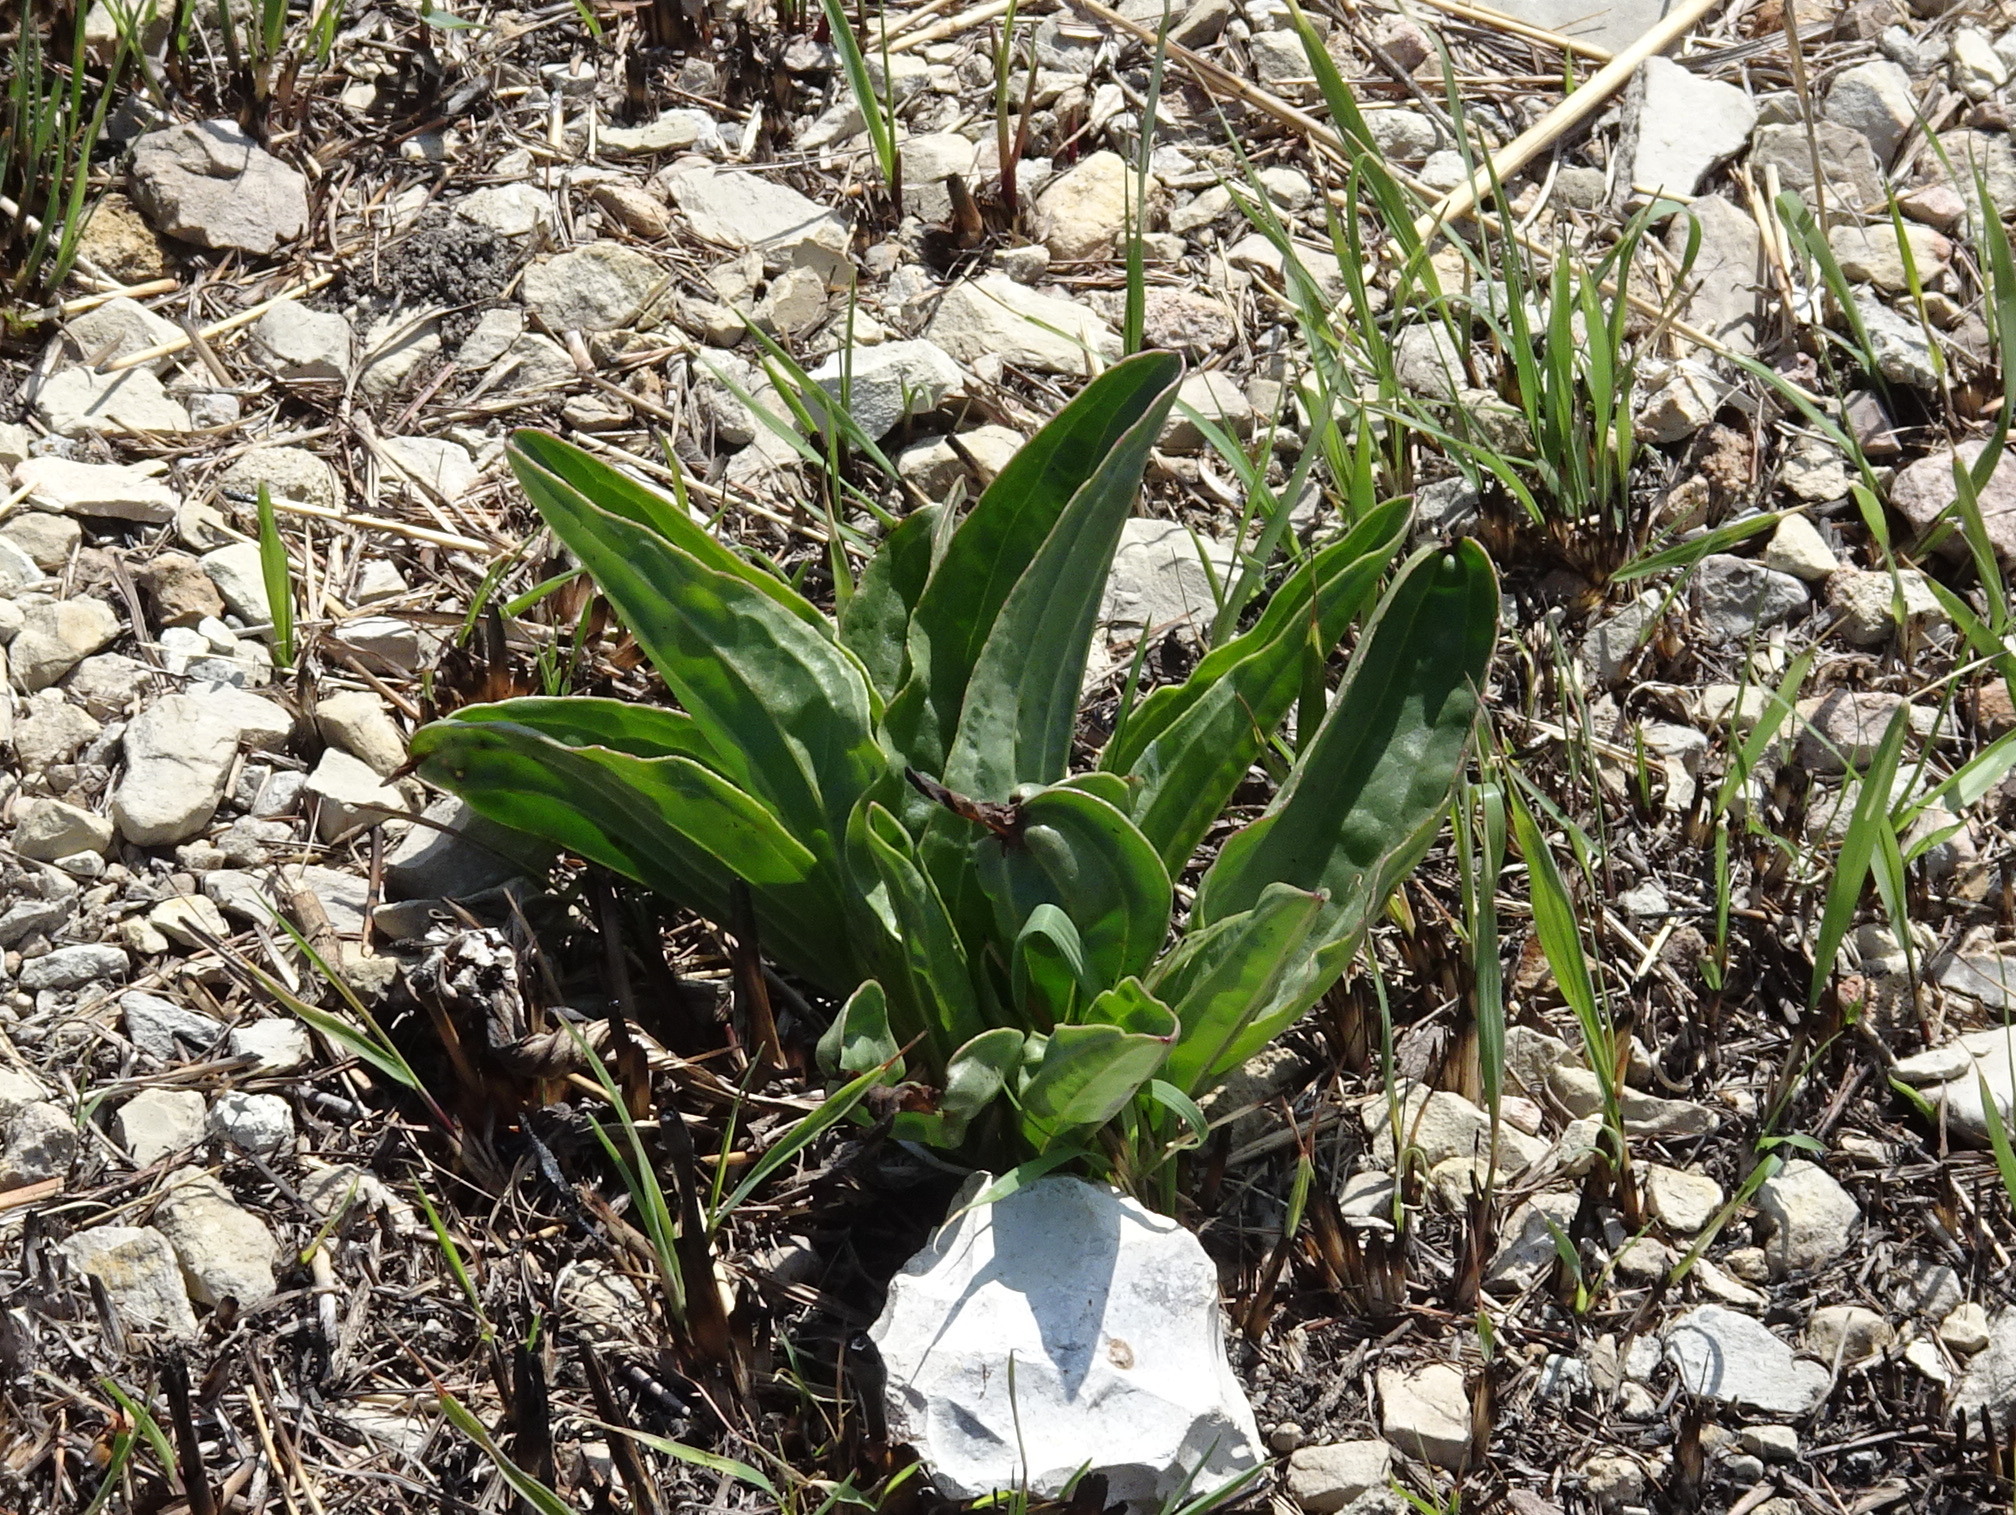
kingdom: Plantae
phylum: Tracheophyta
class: Magnoliopsida
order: Asterales
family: Asteraceae
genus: Arnoglossum
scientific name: Arnoglossum plantagineum
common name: Groove-stemmed indian-plantain
